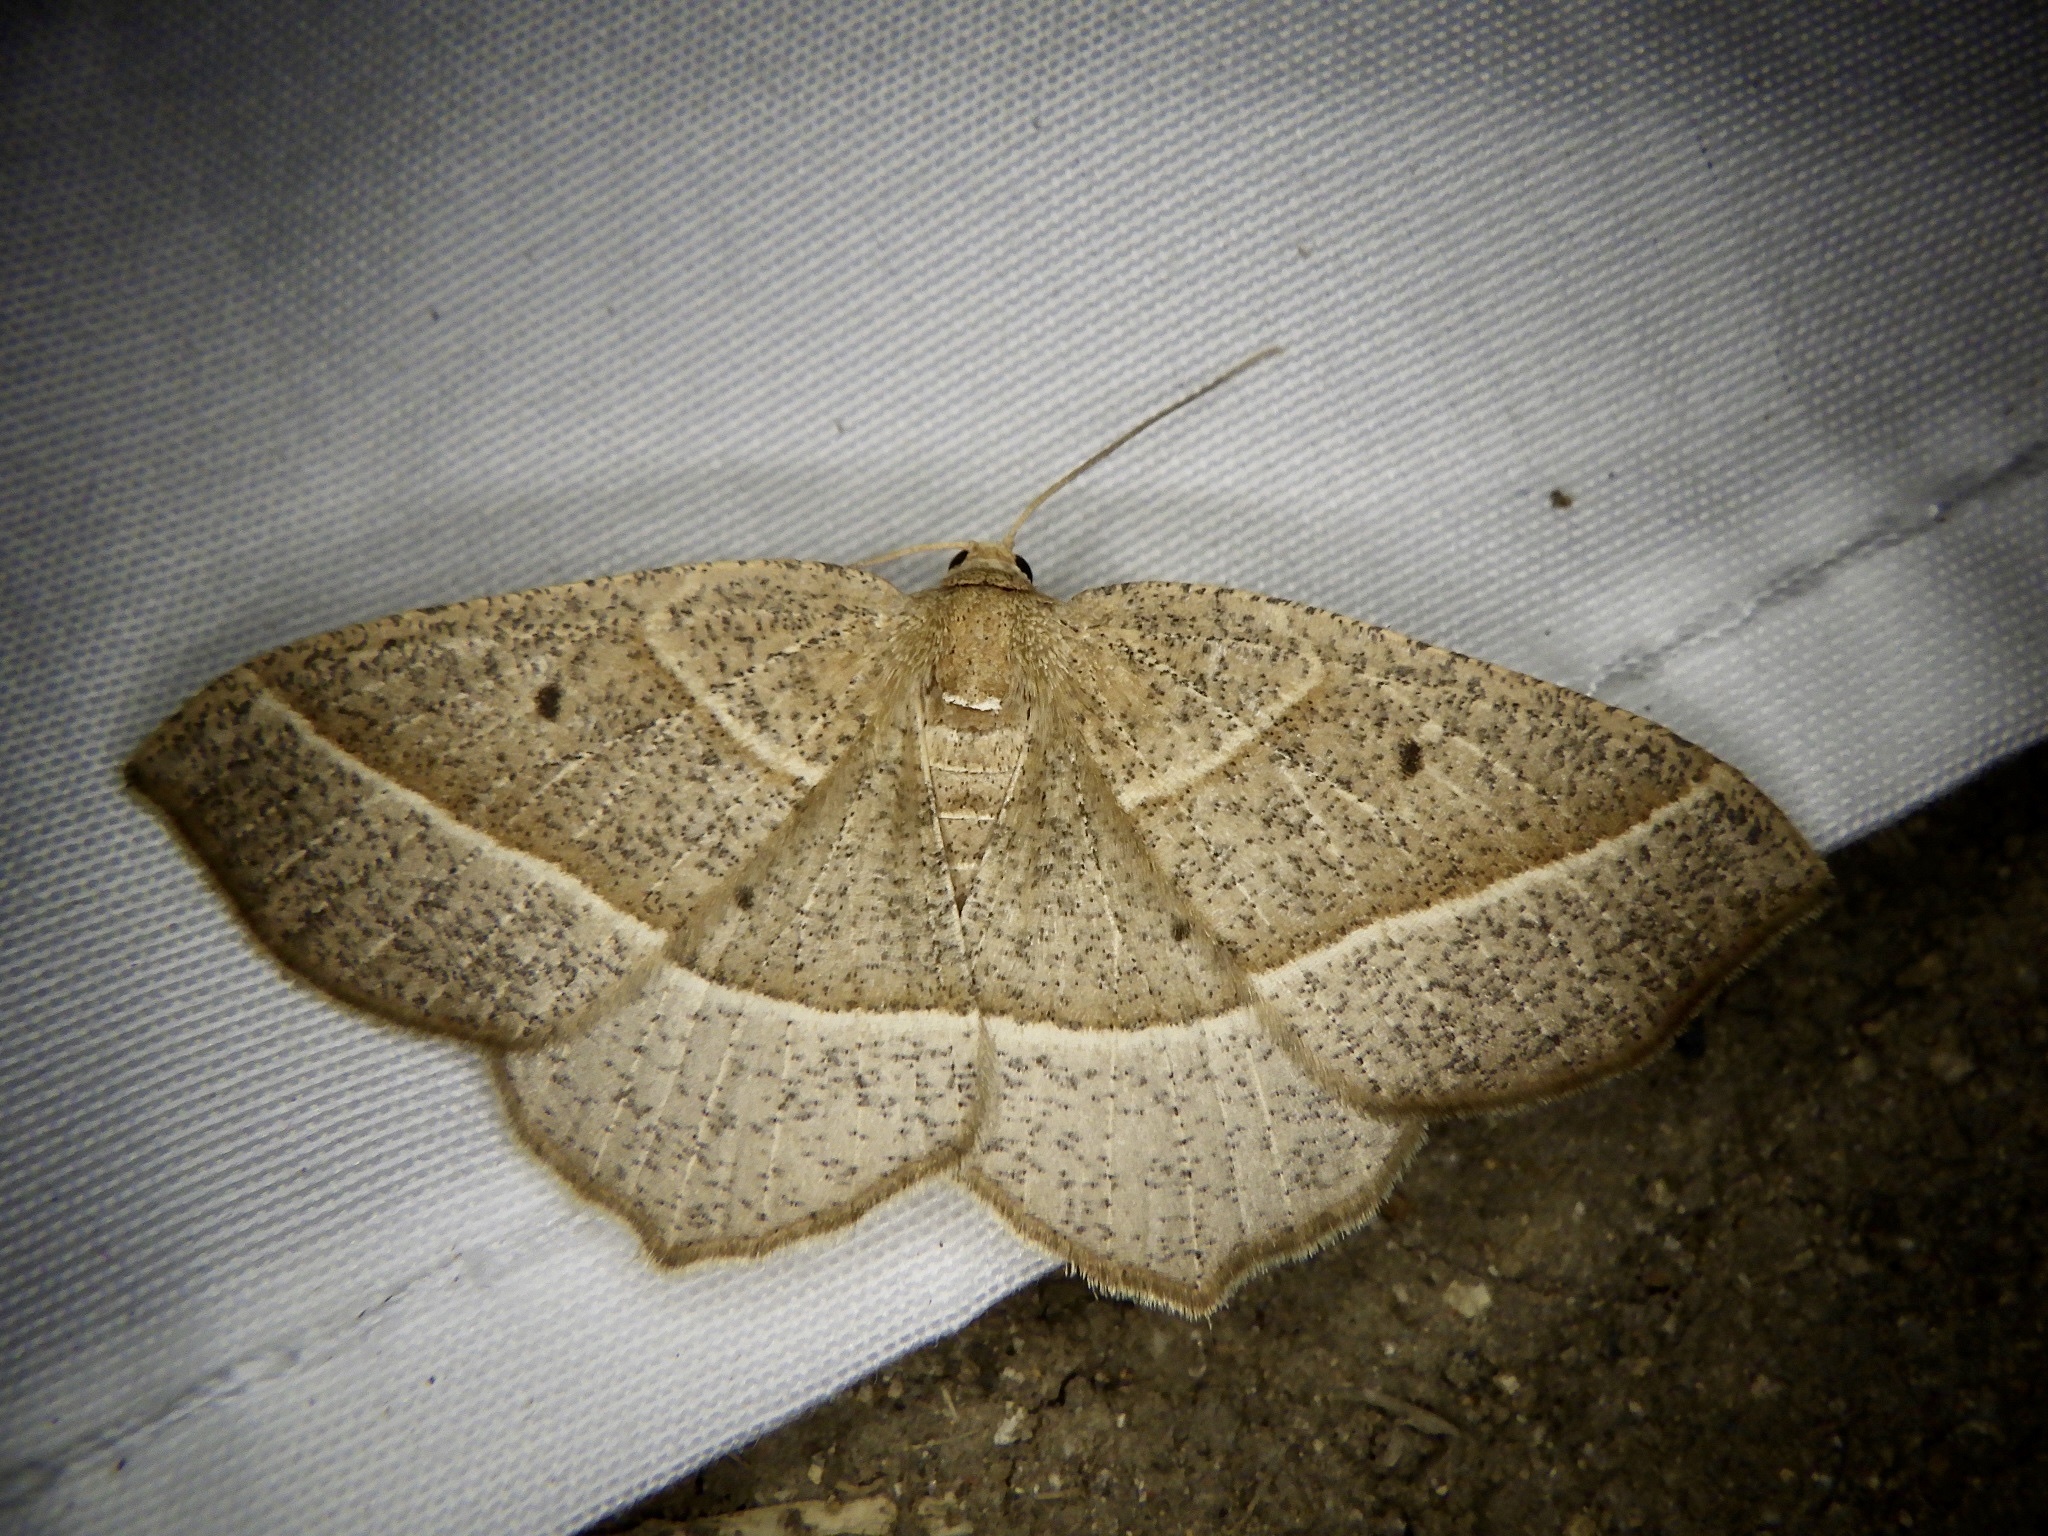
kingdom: Animalia
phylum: Arthropoda
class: Insecta
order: Lepidoptera
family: Geometridae
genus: Rhynchobapta
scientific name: Rhynchobapta cervinaria
